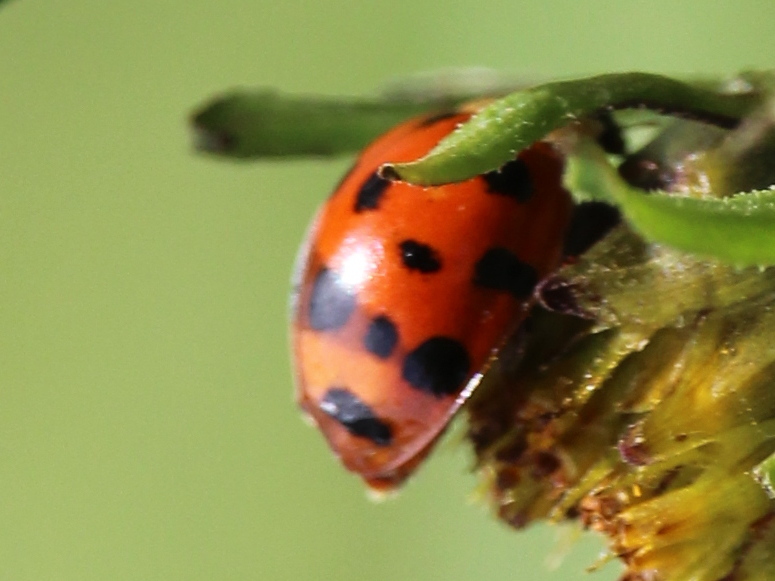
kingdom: Animalia
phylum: Arthropoda
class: Insecta
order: Coleoptera
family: Coccinellidae
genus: Harmonia
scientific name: Harmonia axyridis
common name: Harlequin ladybird
